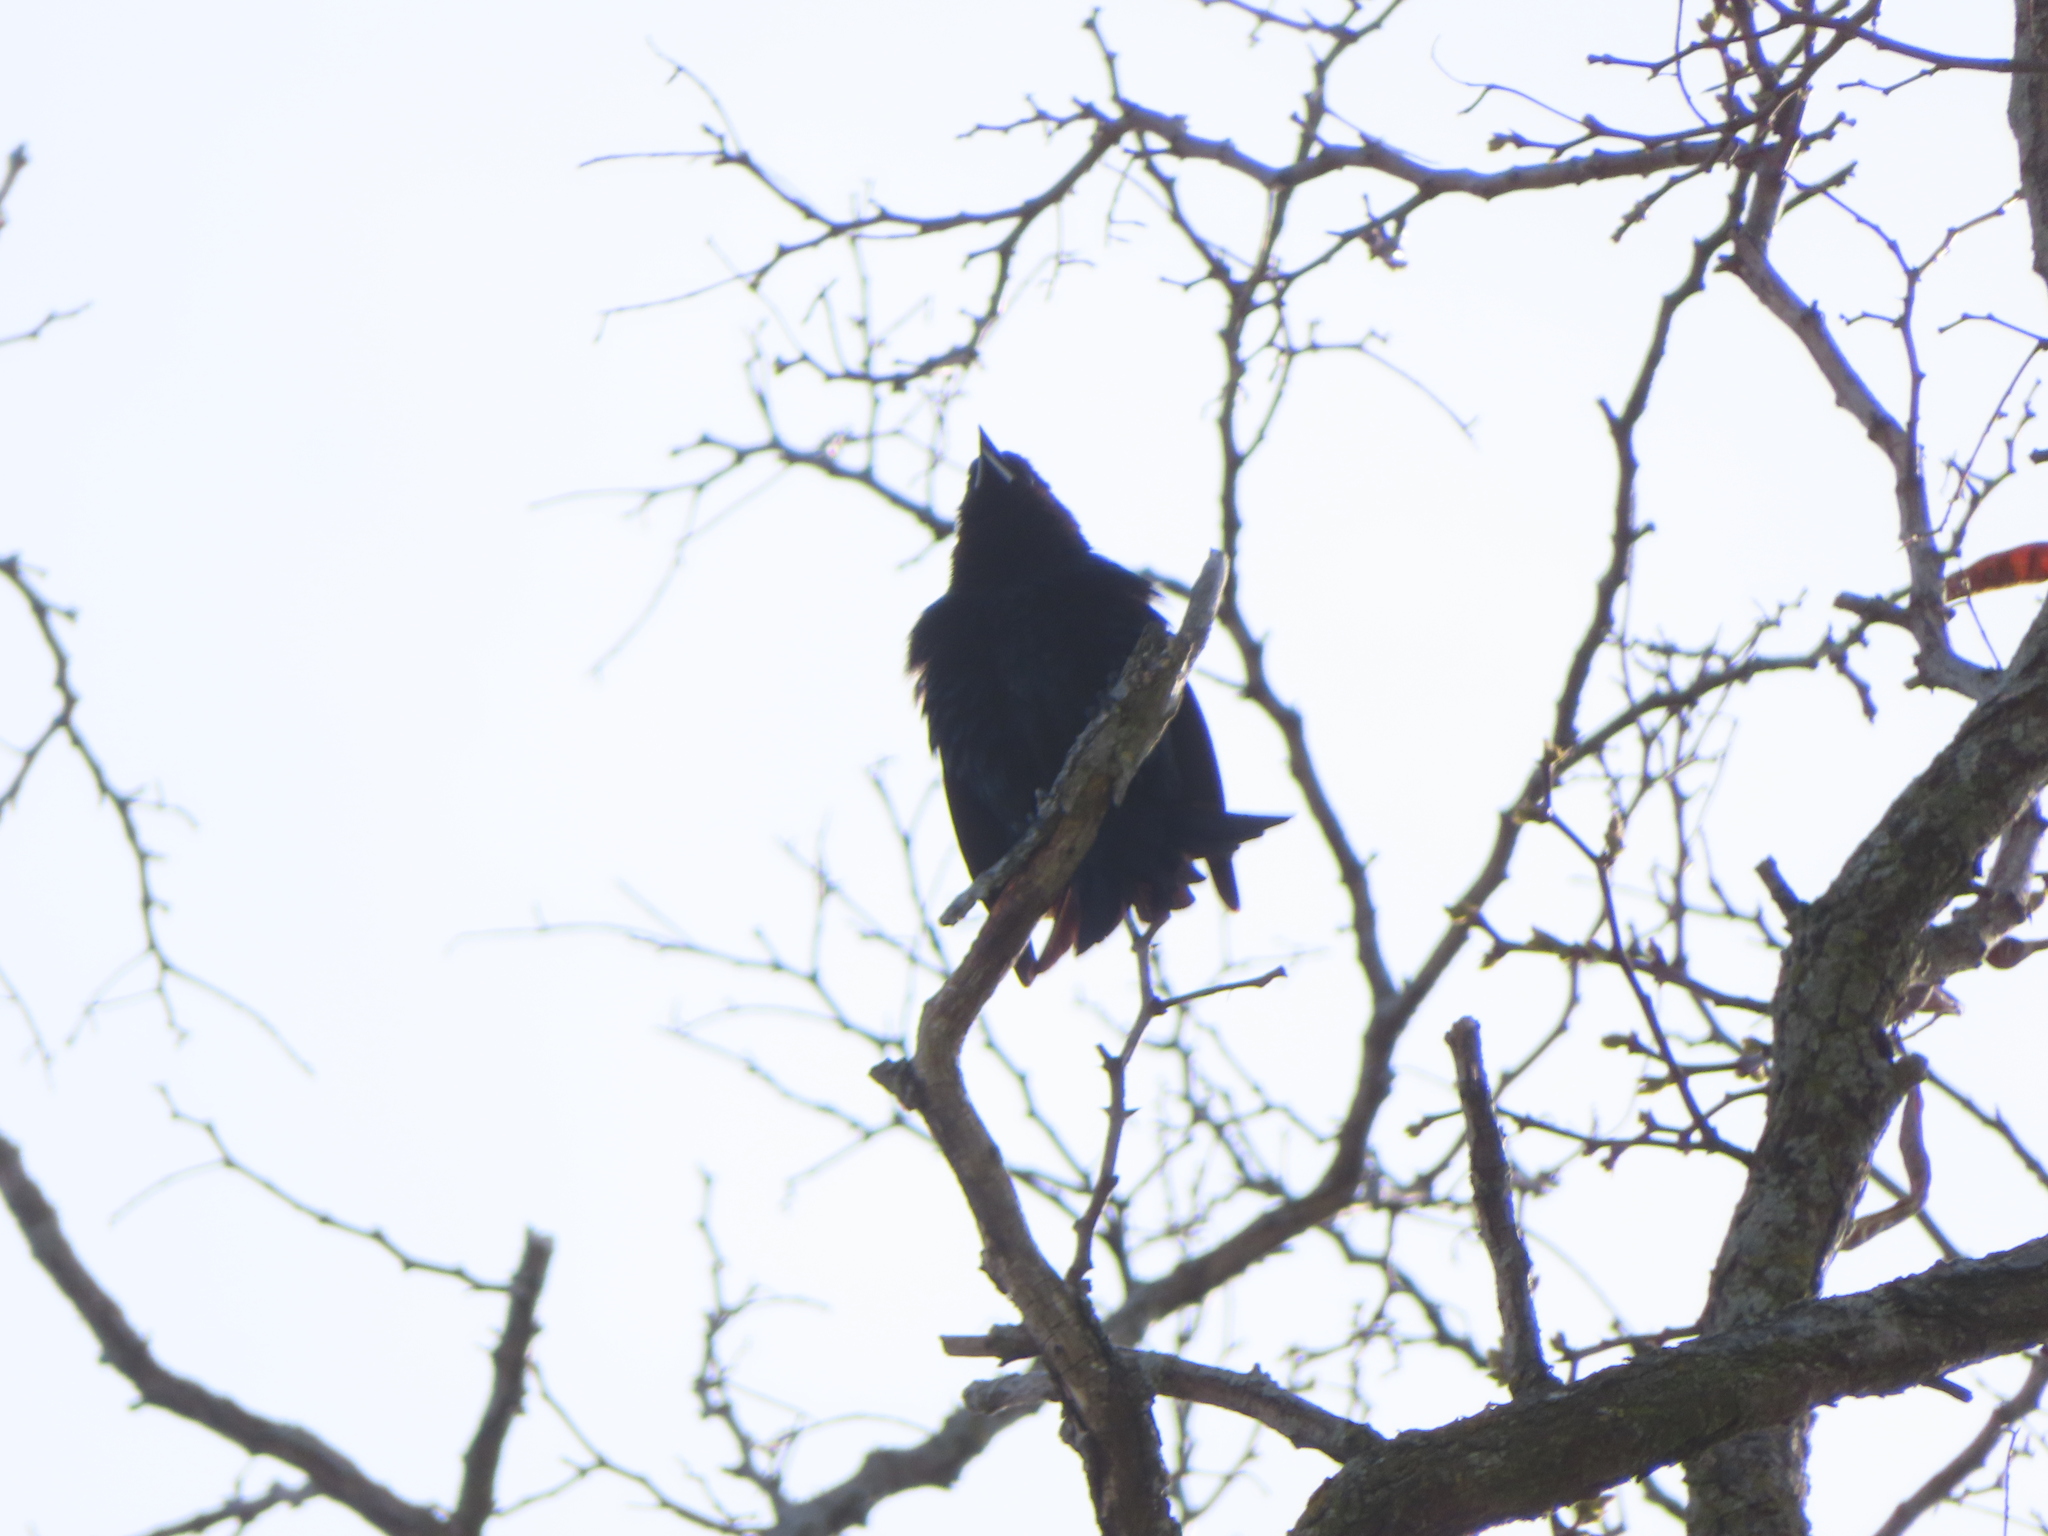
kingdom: Animalia
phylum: Chordata
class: Aves
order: Passeriformes
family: Corvidae
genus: Corvus
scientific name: Corvus brachyrhynchos
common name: American crow
